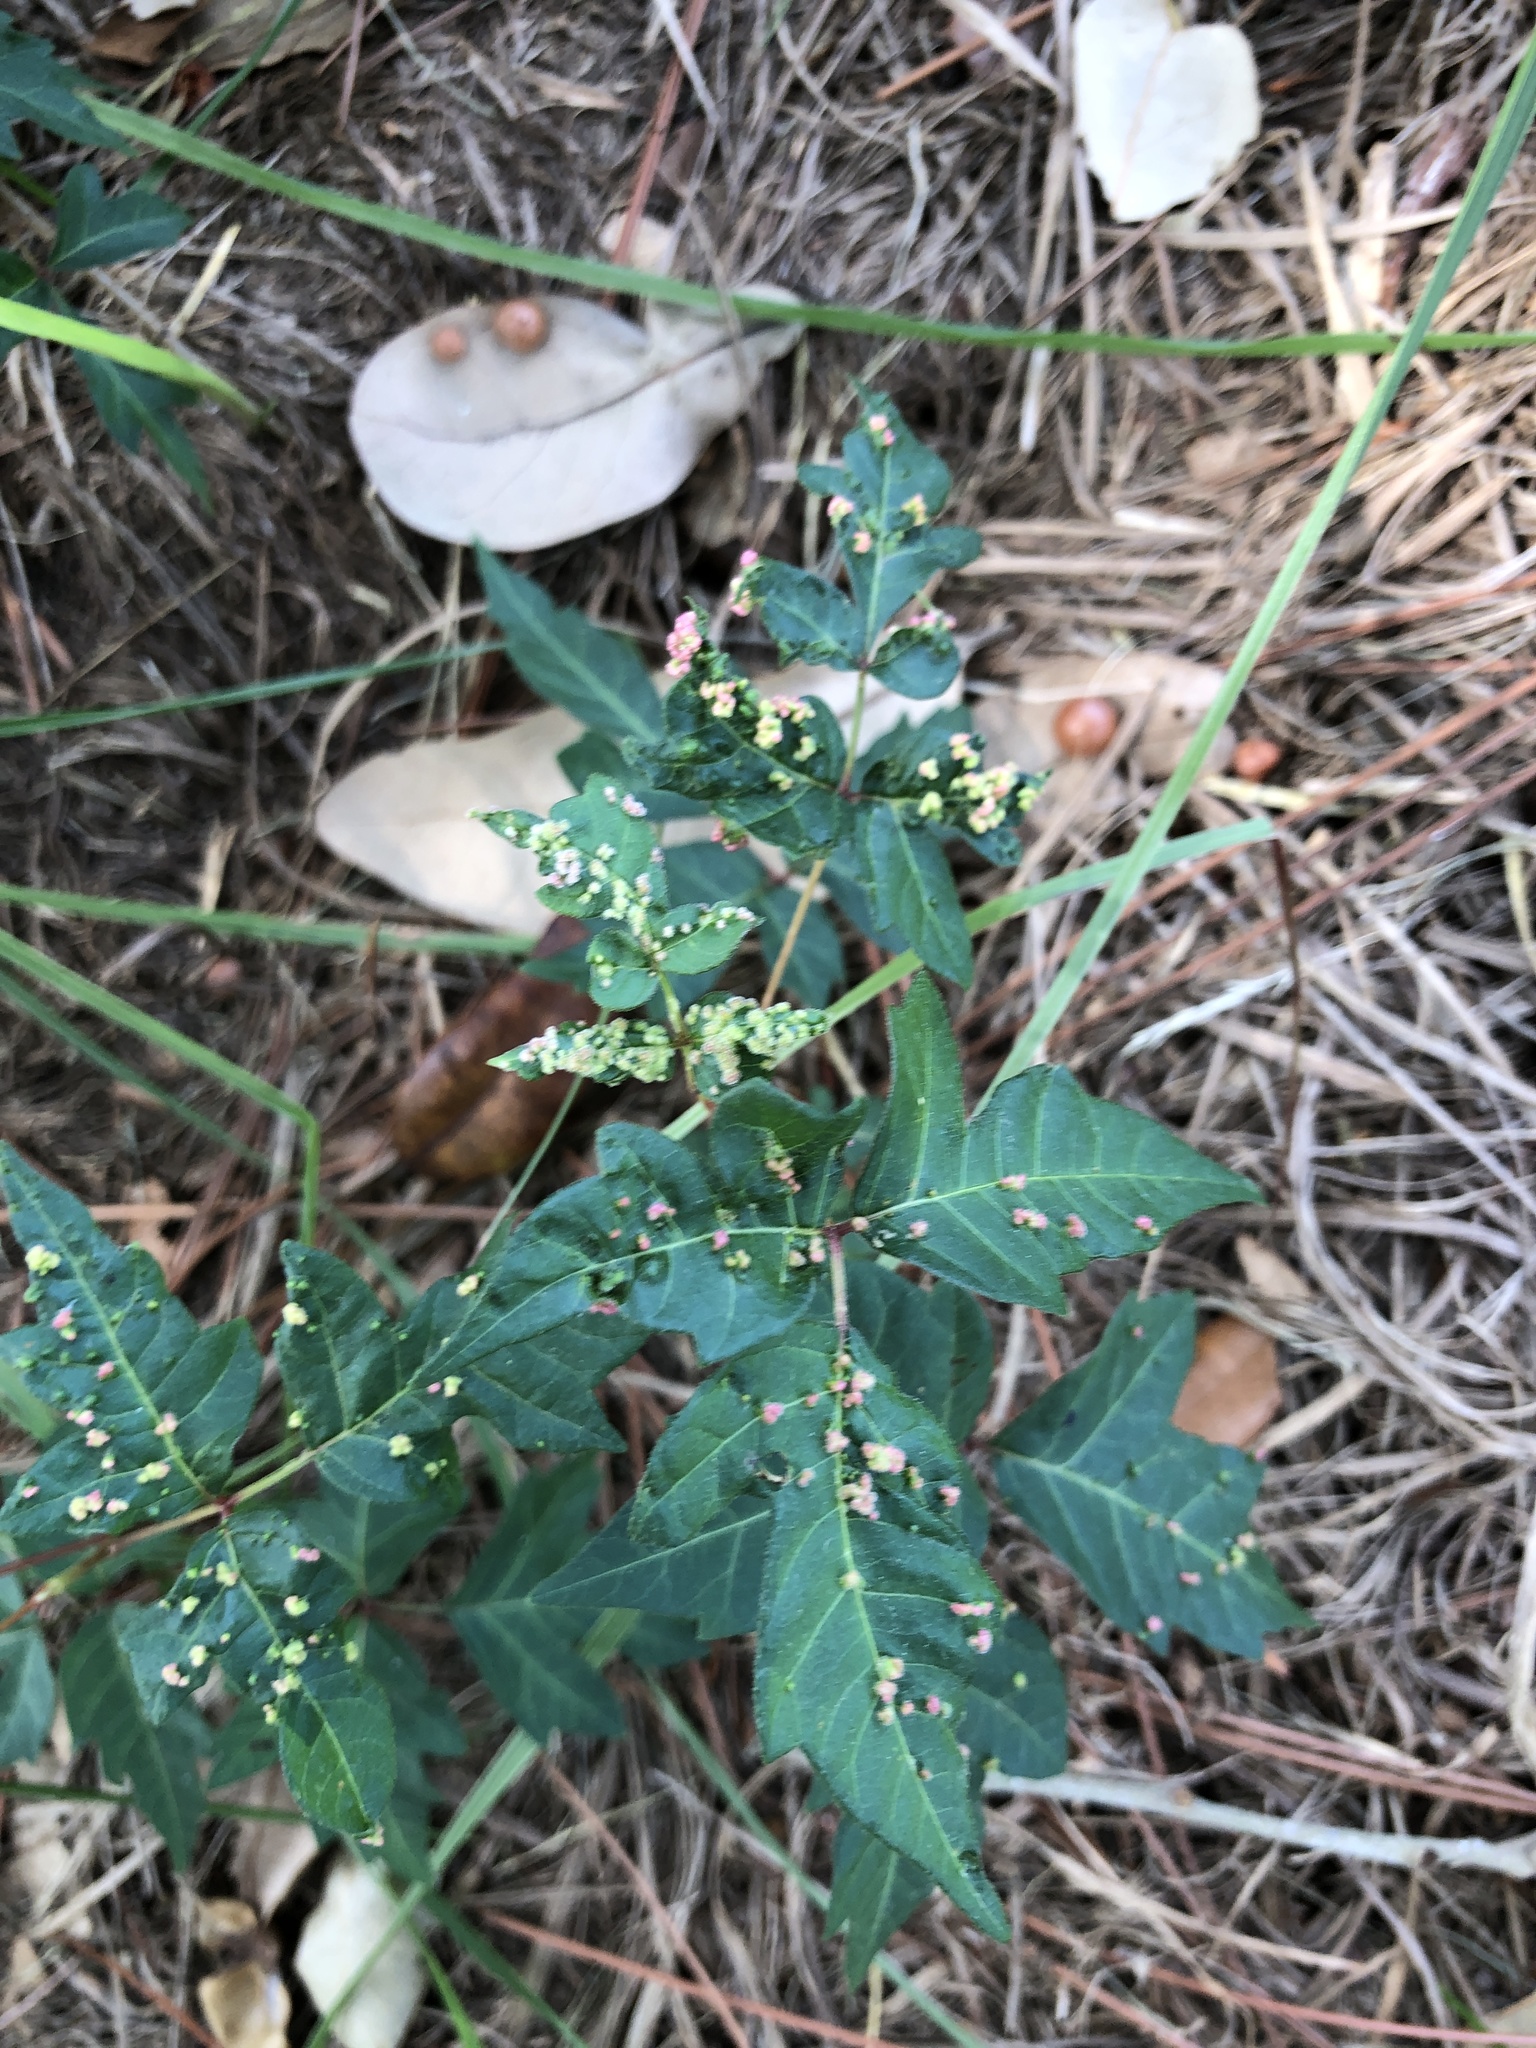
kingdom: Animalia
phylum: Arthropoda
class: Arachnida
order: Trombidiformes
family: Eriophyidae
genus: Aculops
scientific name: Aculops
